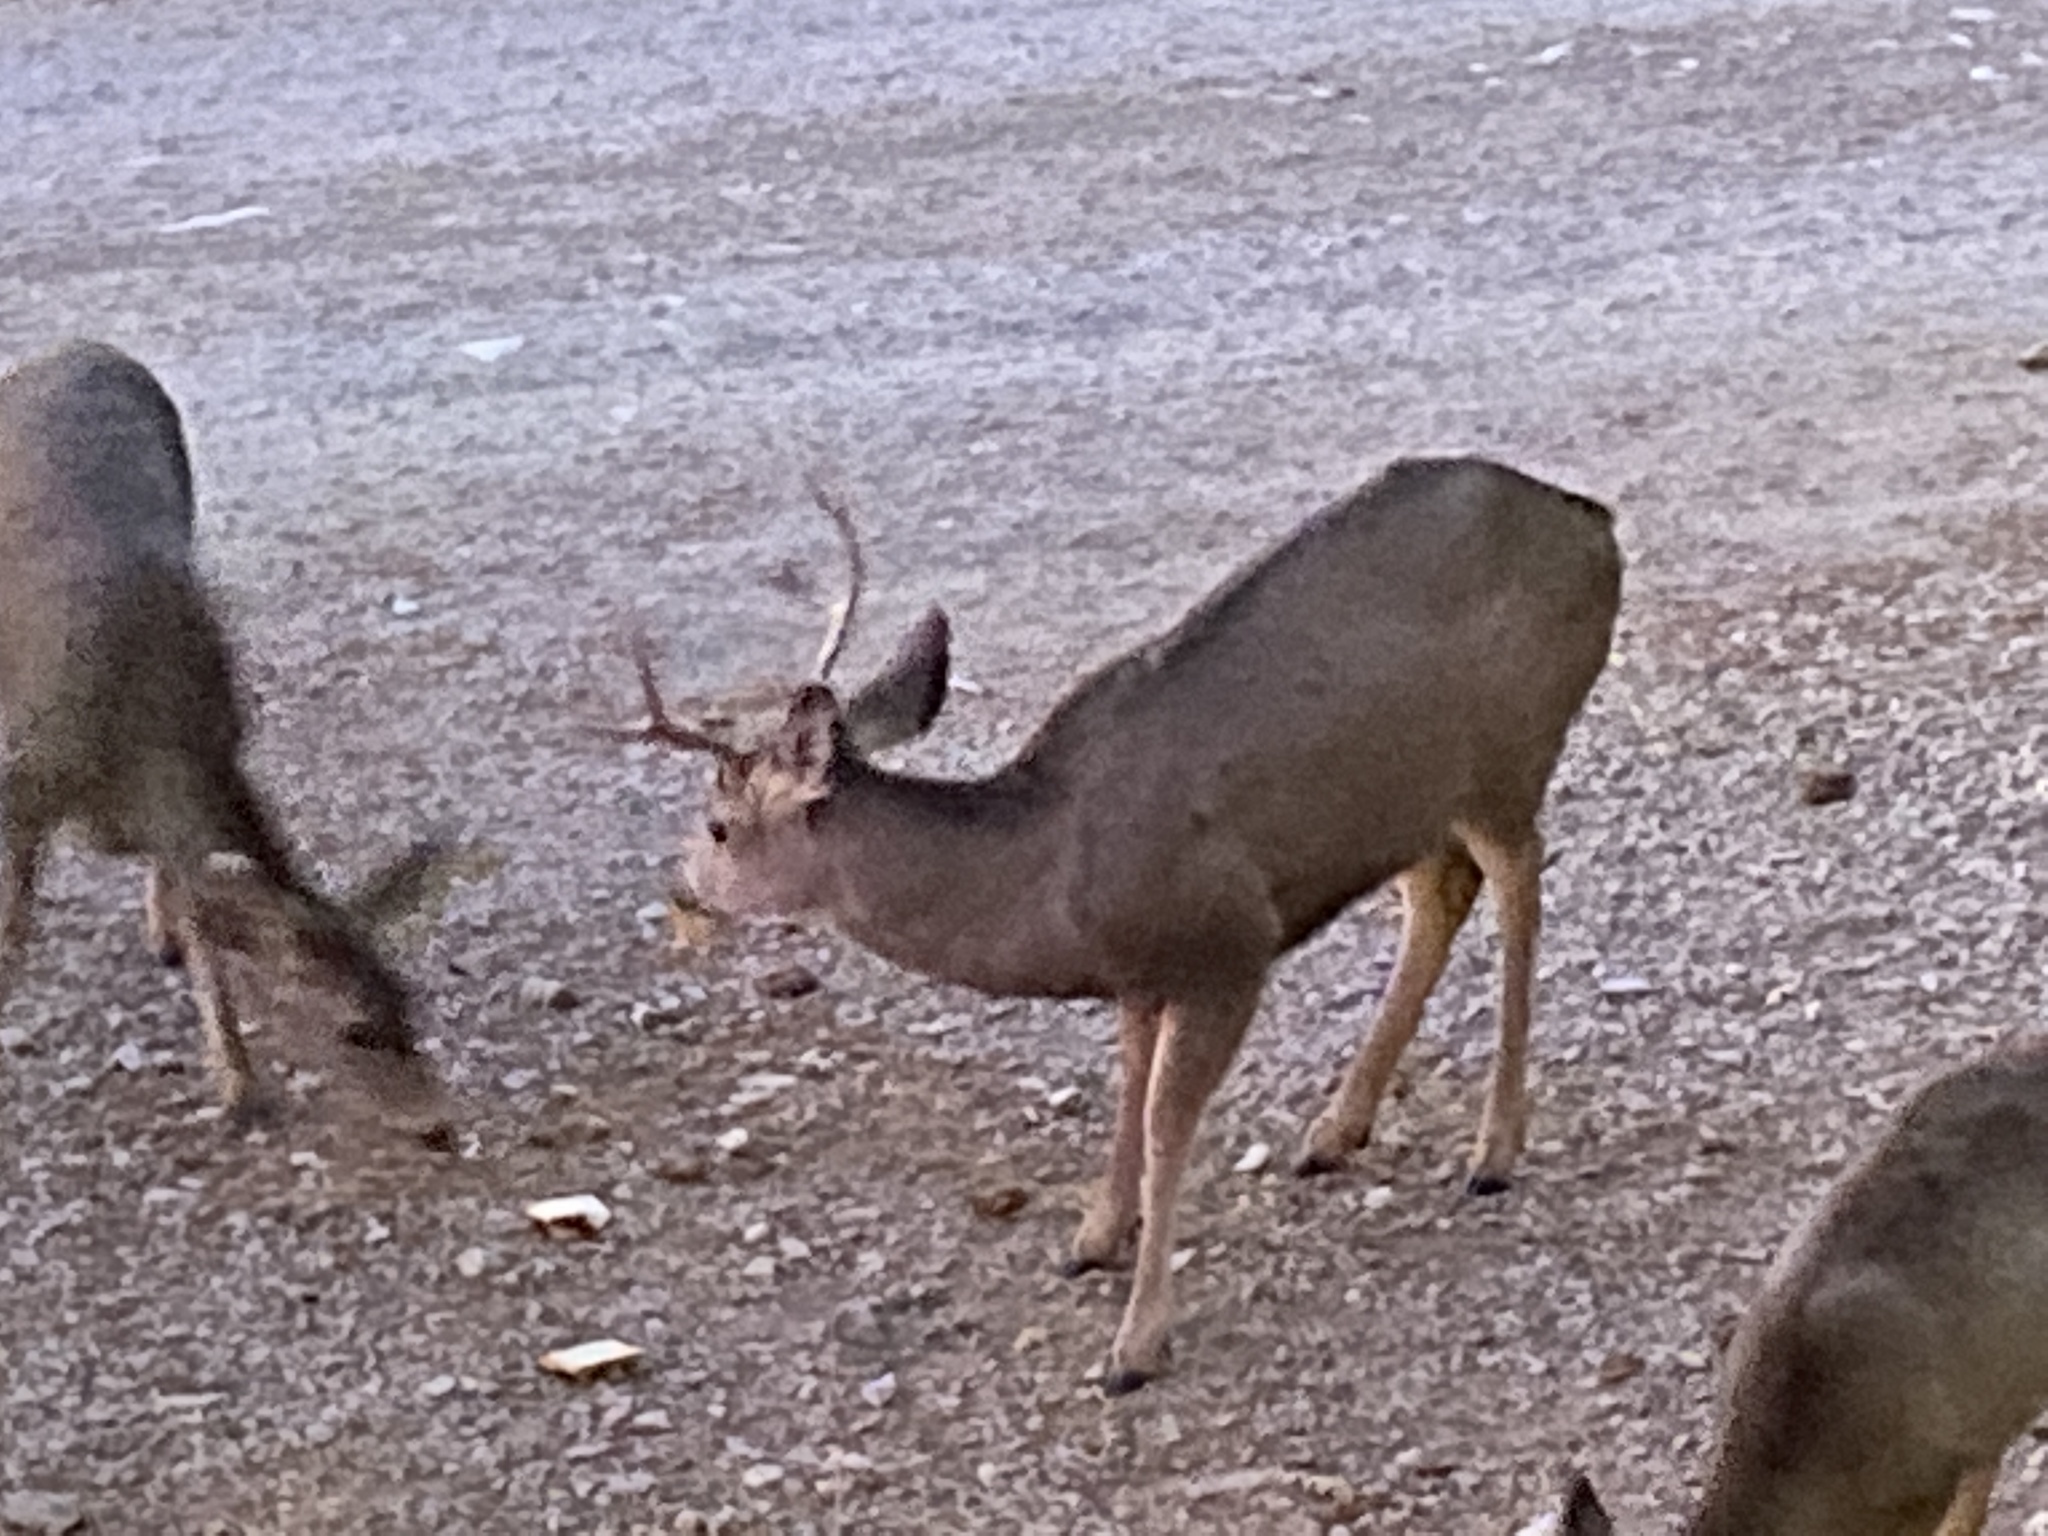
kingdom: Animalia
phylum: Chordata
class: Mammalia
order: Artiodactyla
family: Cervidae
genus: Odocoileus
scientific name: Odocoileus hemionus
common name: Mule deer
